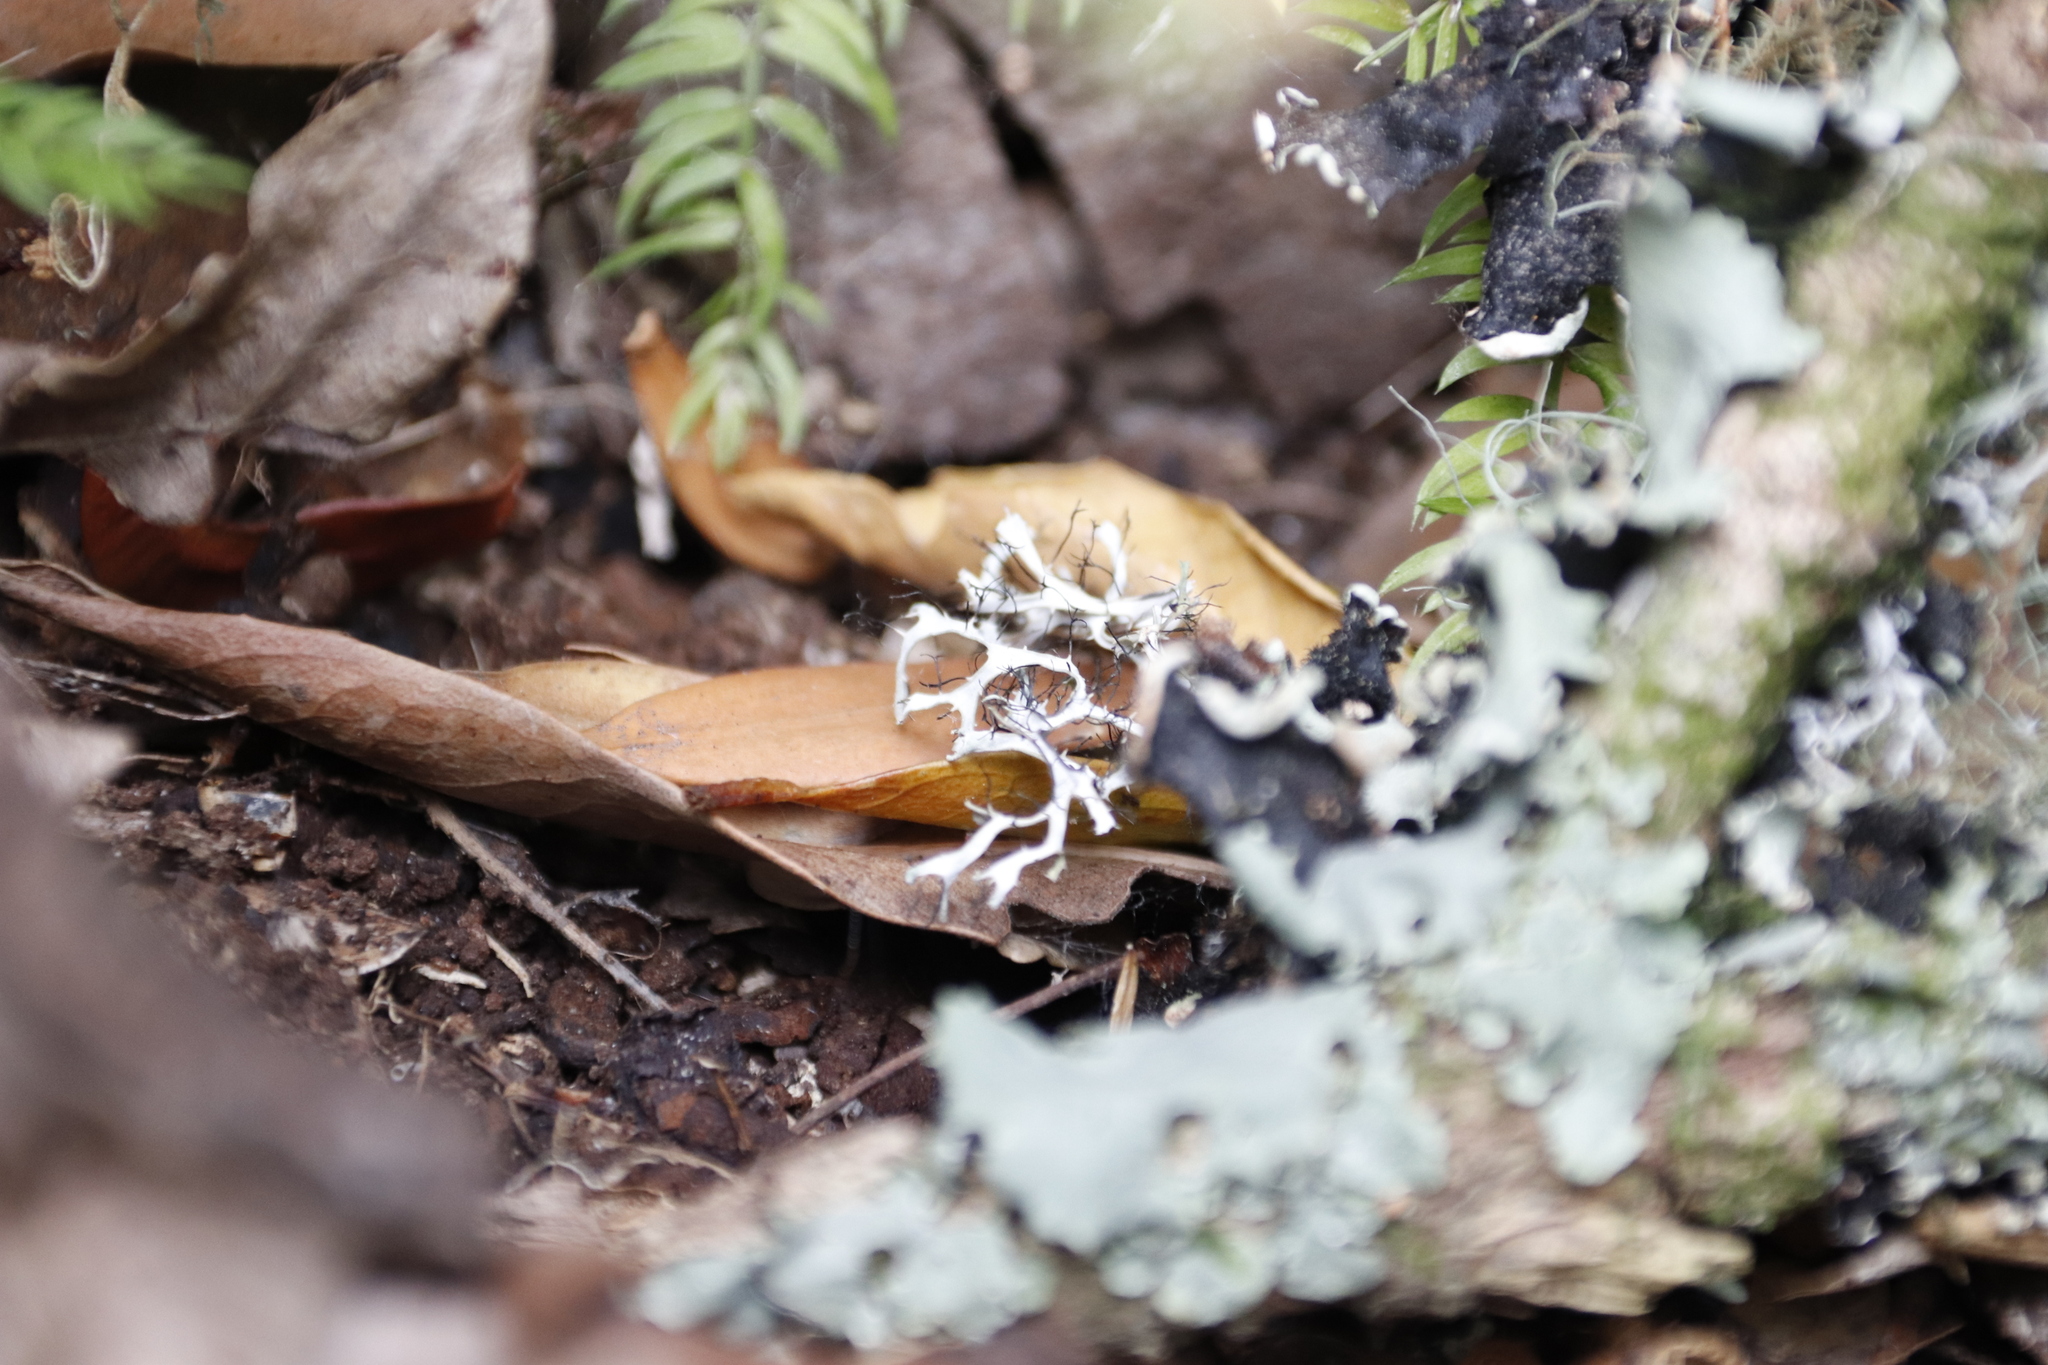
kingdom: Fungi
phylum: Ascomycota
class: Lecanoromycetes
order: Caliciales
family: Physciaceae
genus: Leucodermia
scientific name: Leucodermia leucomelos
